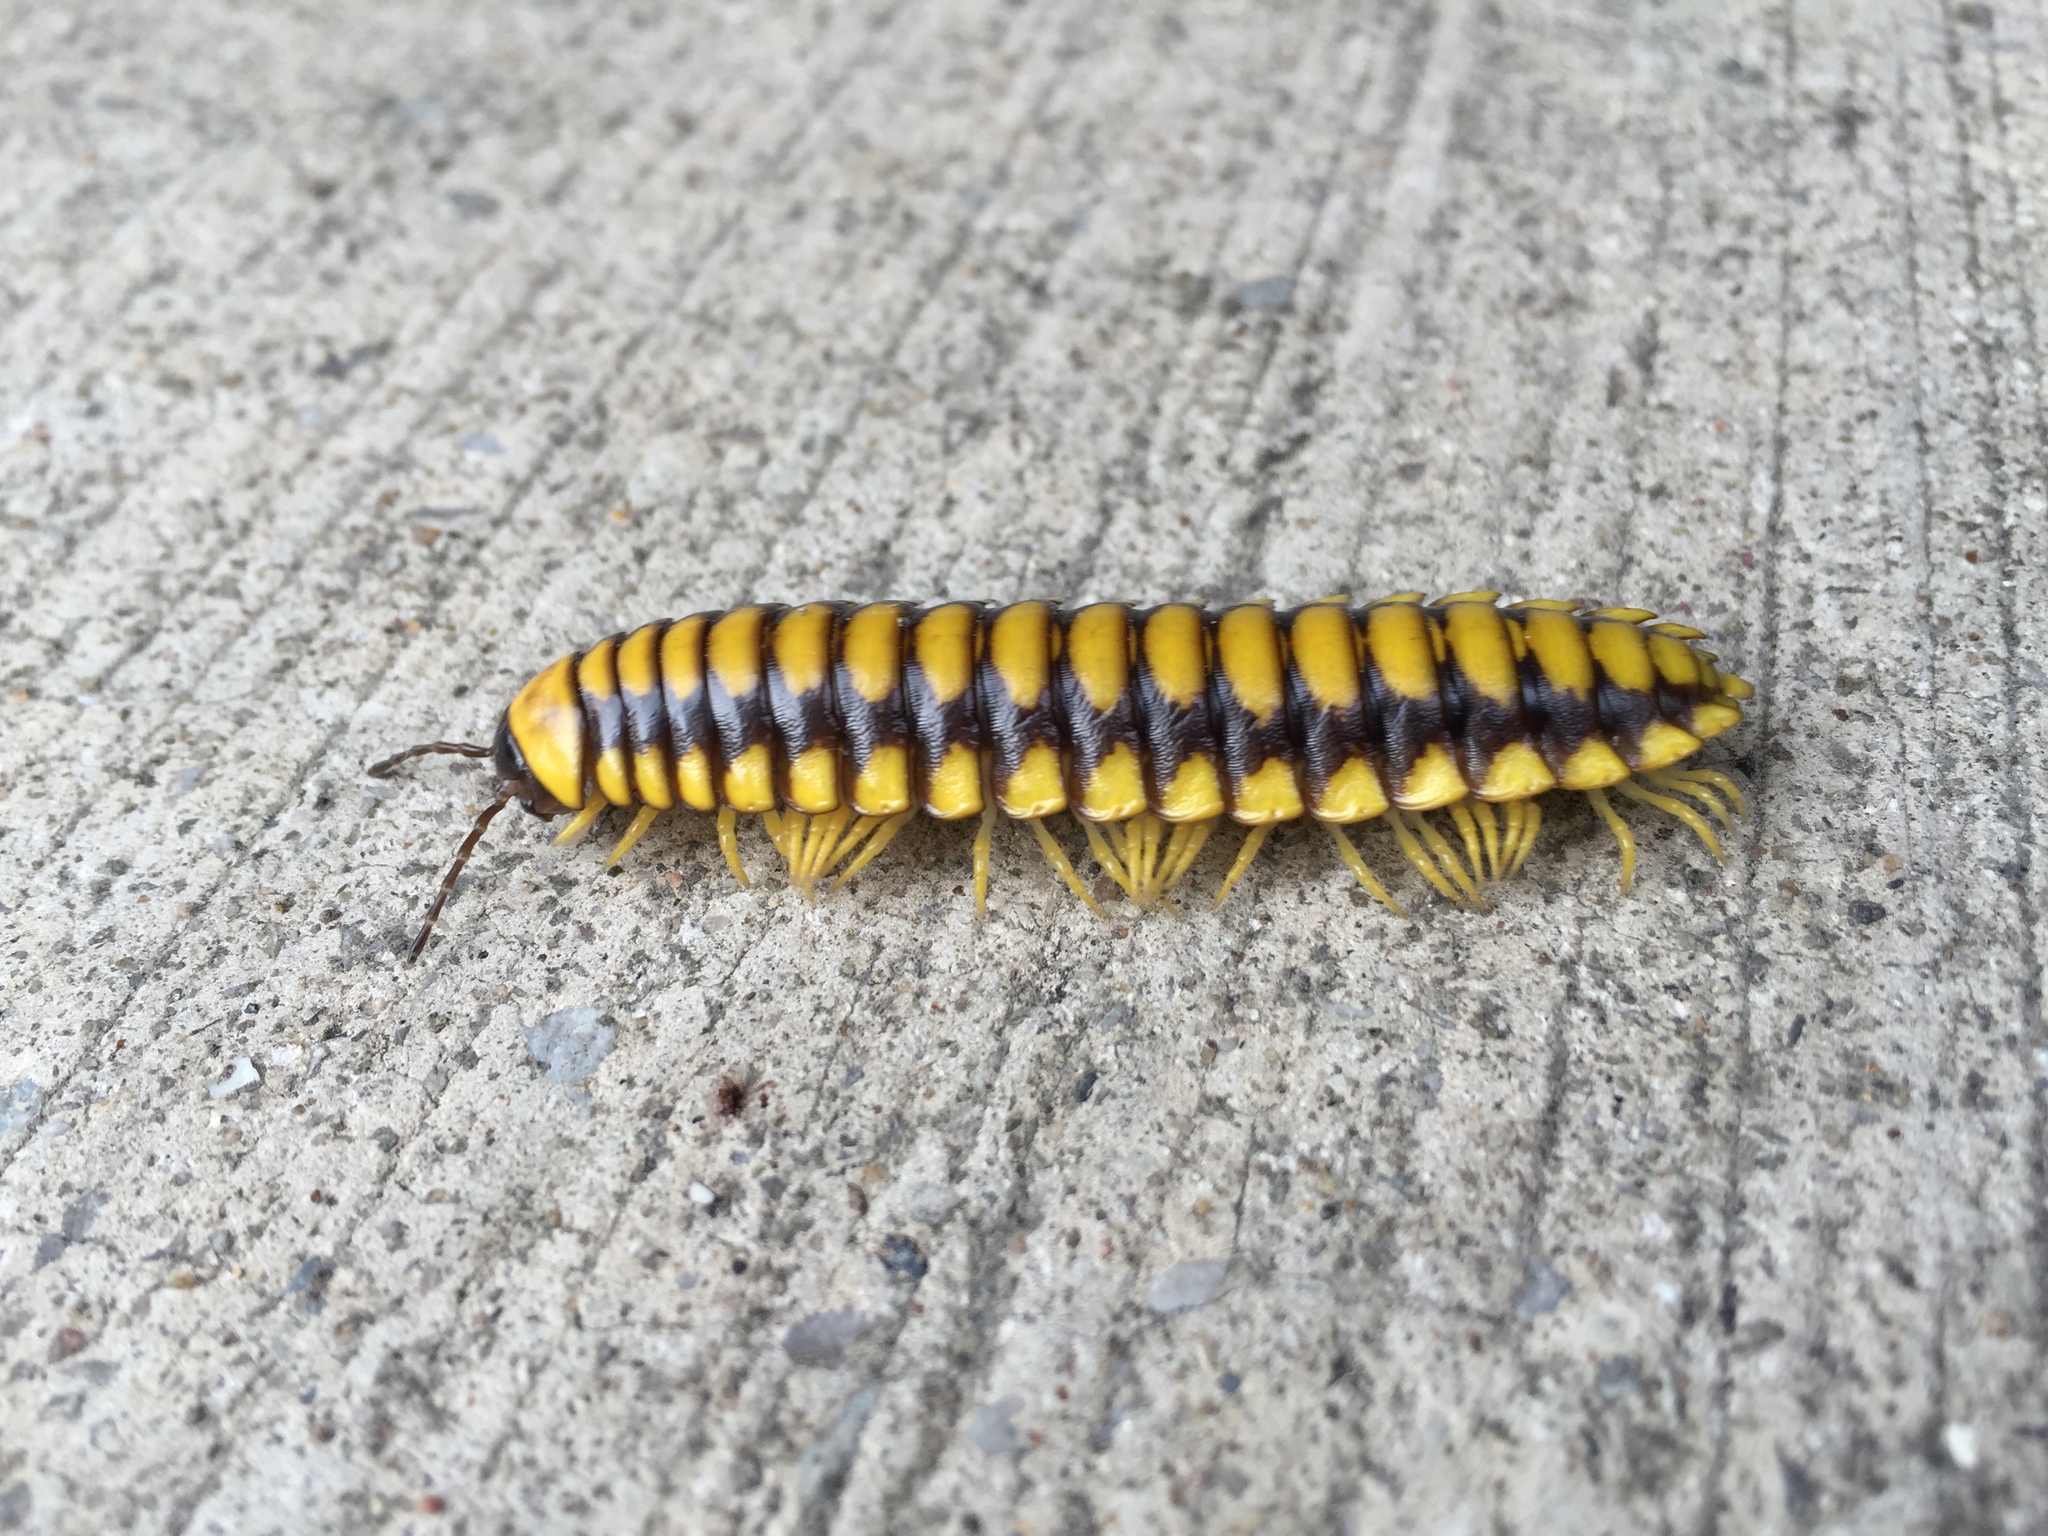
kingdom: Animalia
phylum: Arthropoda
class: Diplopoda
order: Polydesmida
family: Xystodesmidae
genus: Brachoria
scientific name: Brachoria dentata
